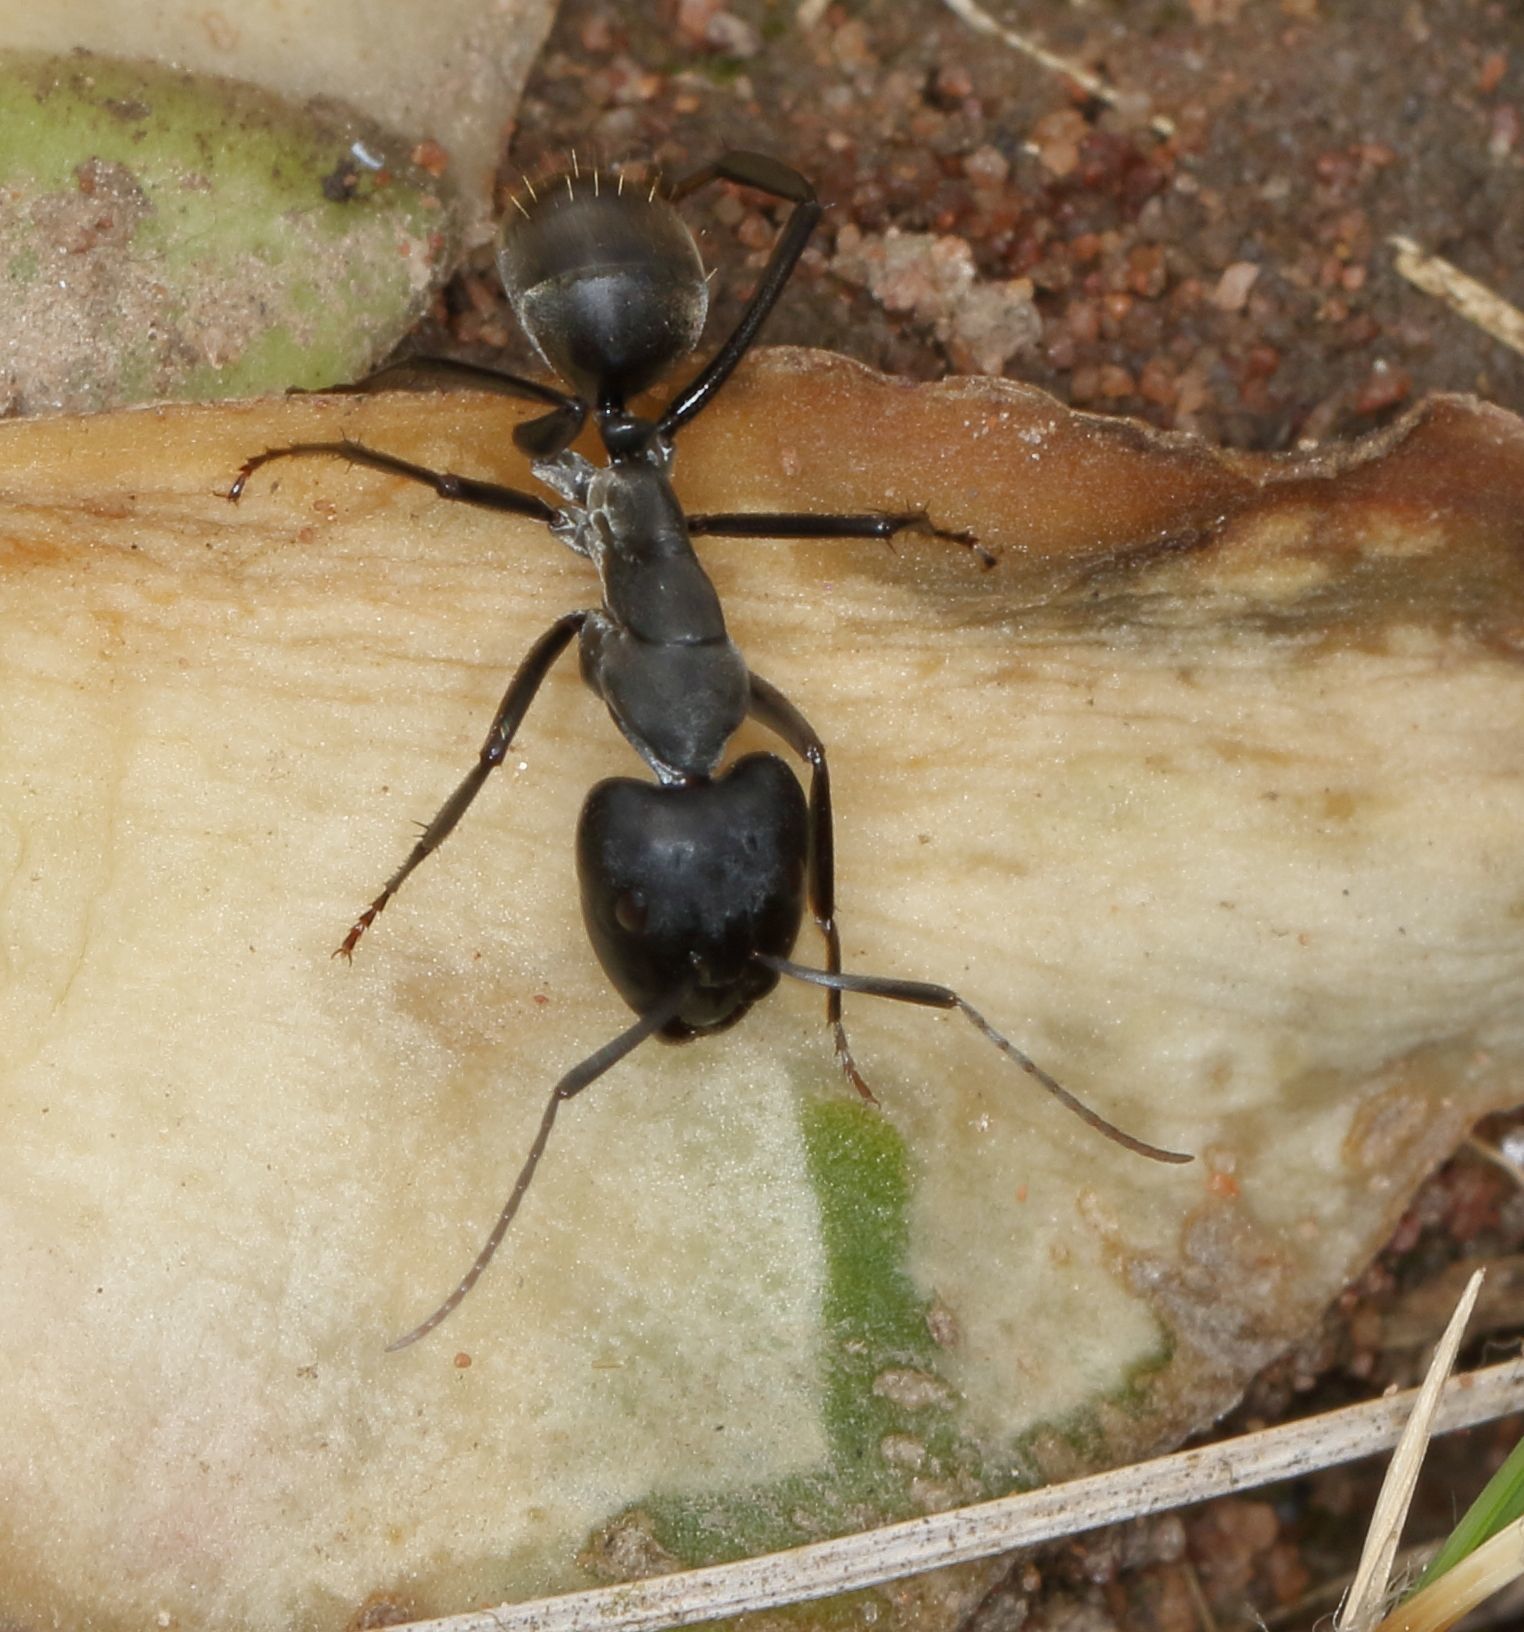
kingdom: Animalia
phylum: Arthropoda
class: Insecta
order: Hymenoptera
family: Formicidae
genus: Camponotus
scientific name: Camponotus eugeniae
